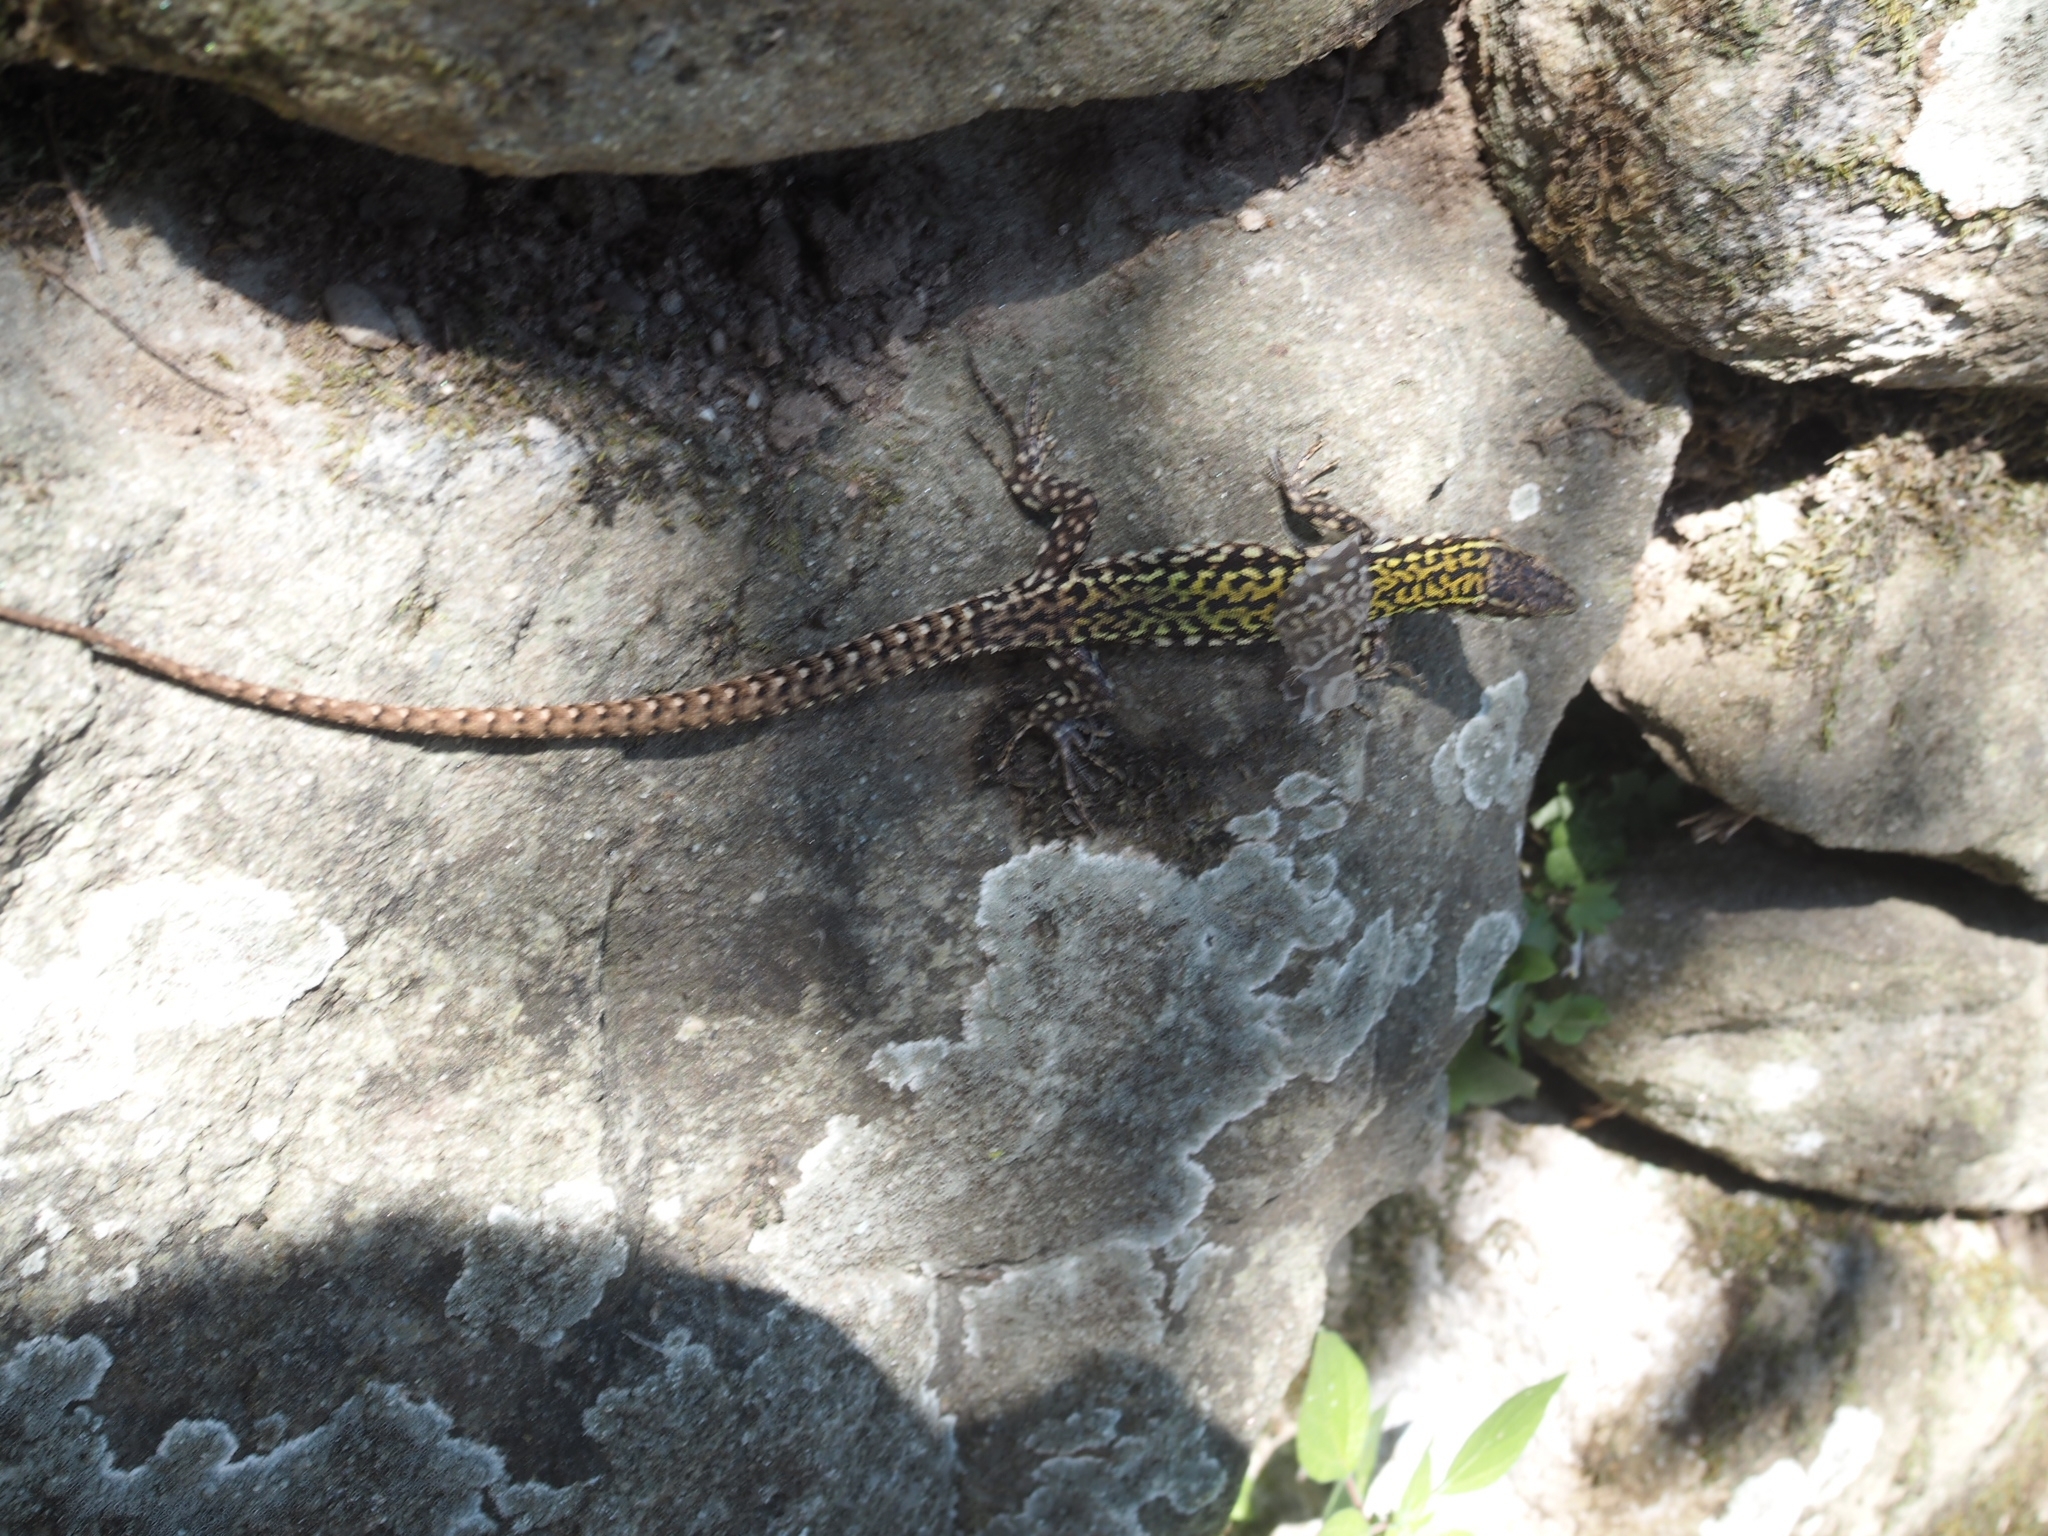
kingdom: Animalia
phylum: Chordata
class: Squamata
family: Lacertidae
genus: Podarcis
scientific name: Podarcis muralis
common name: Common wall lizard
